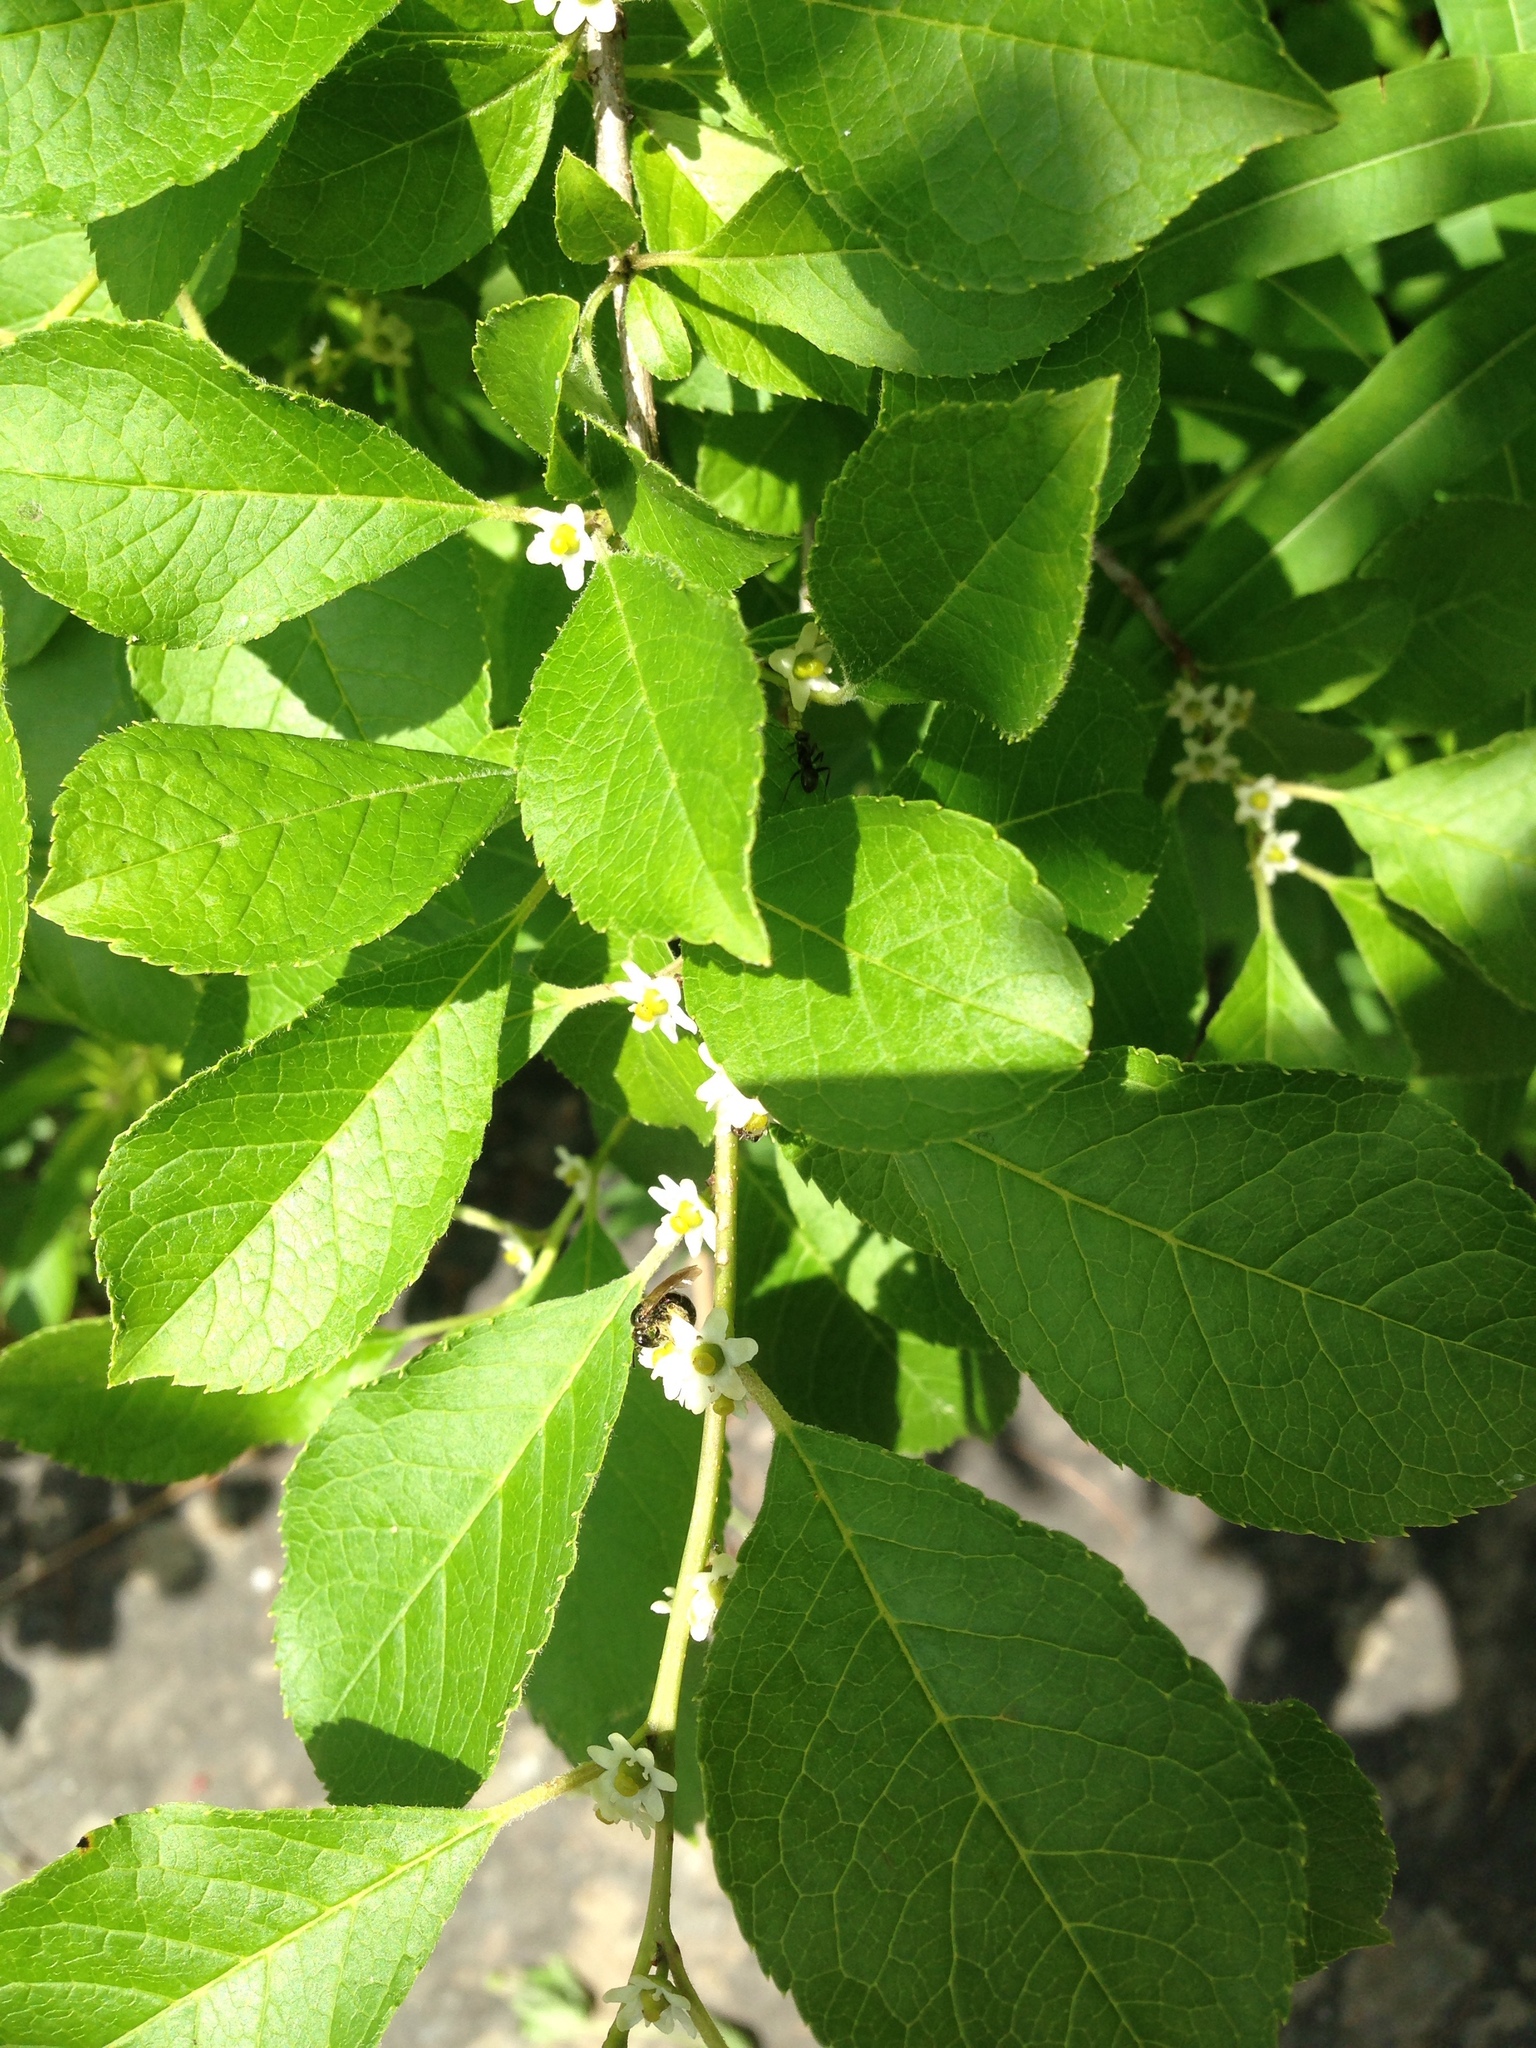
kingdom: Plantae
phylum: Tracheophyta
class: Magnoliopsida
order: Aquifoliales
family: Aquifoliaceae
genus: Ilex
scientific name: Ilex verticillata
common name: Virginia winterberry
